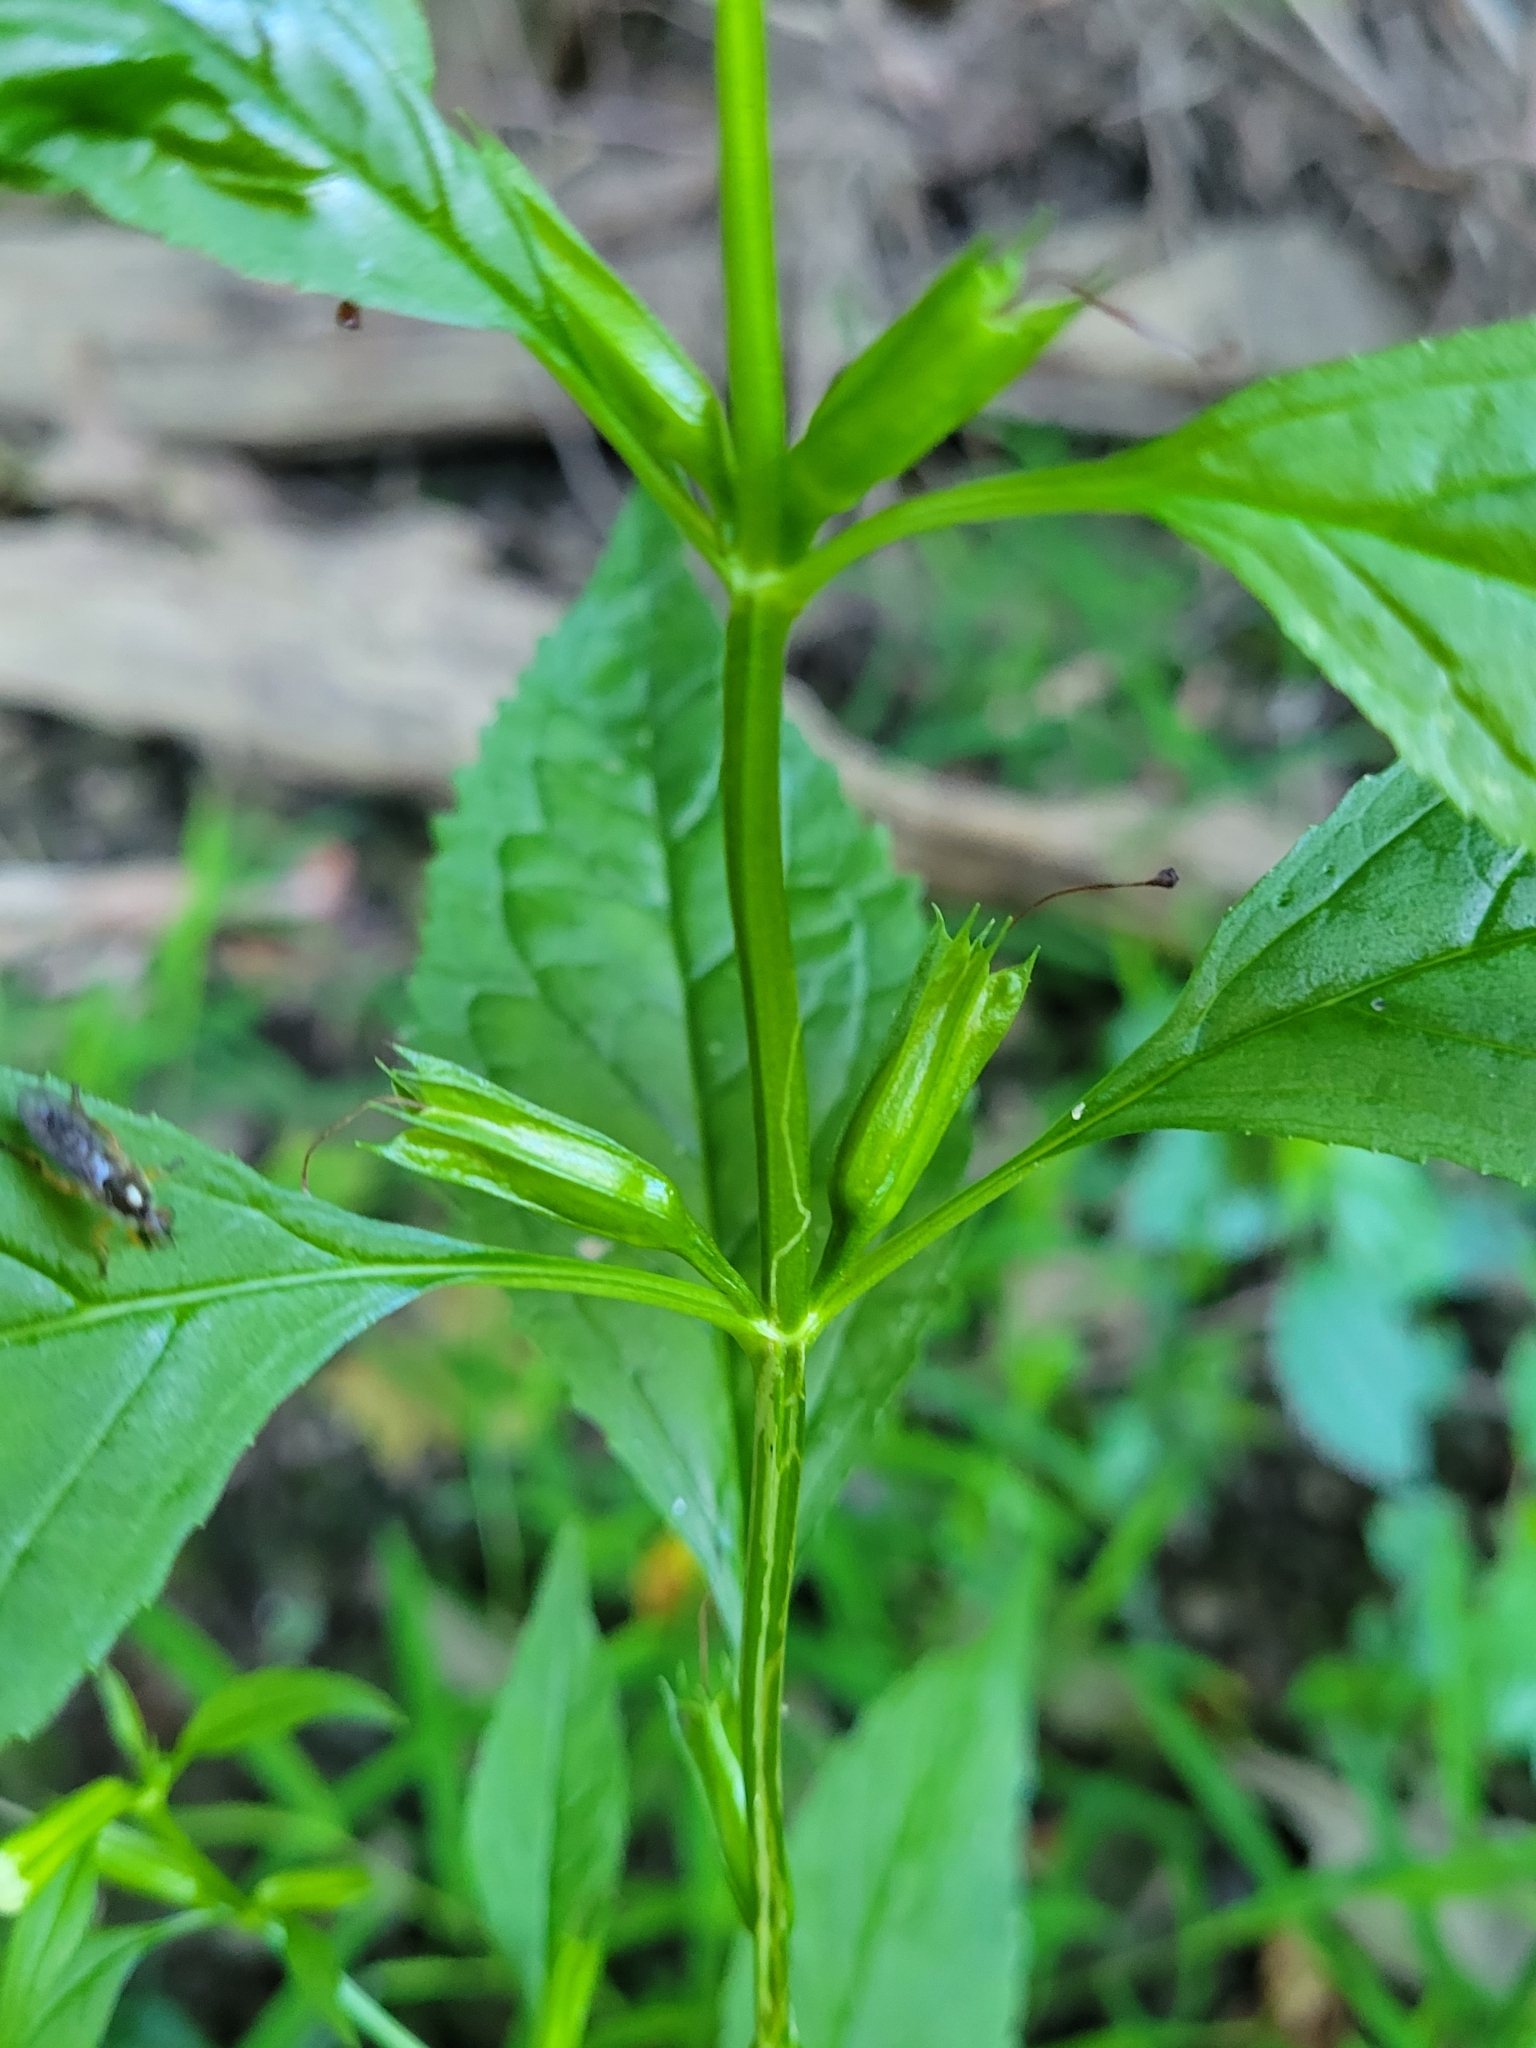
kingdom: Plantae
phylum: Tracheophyta
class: Magnoliopsida
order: Lamiales
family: Phrymaceae
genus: Mimulus
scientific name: Mimulus alatus
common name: Sharp-wing monkey-flower
